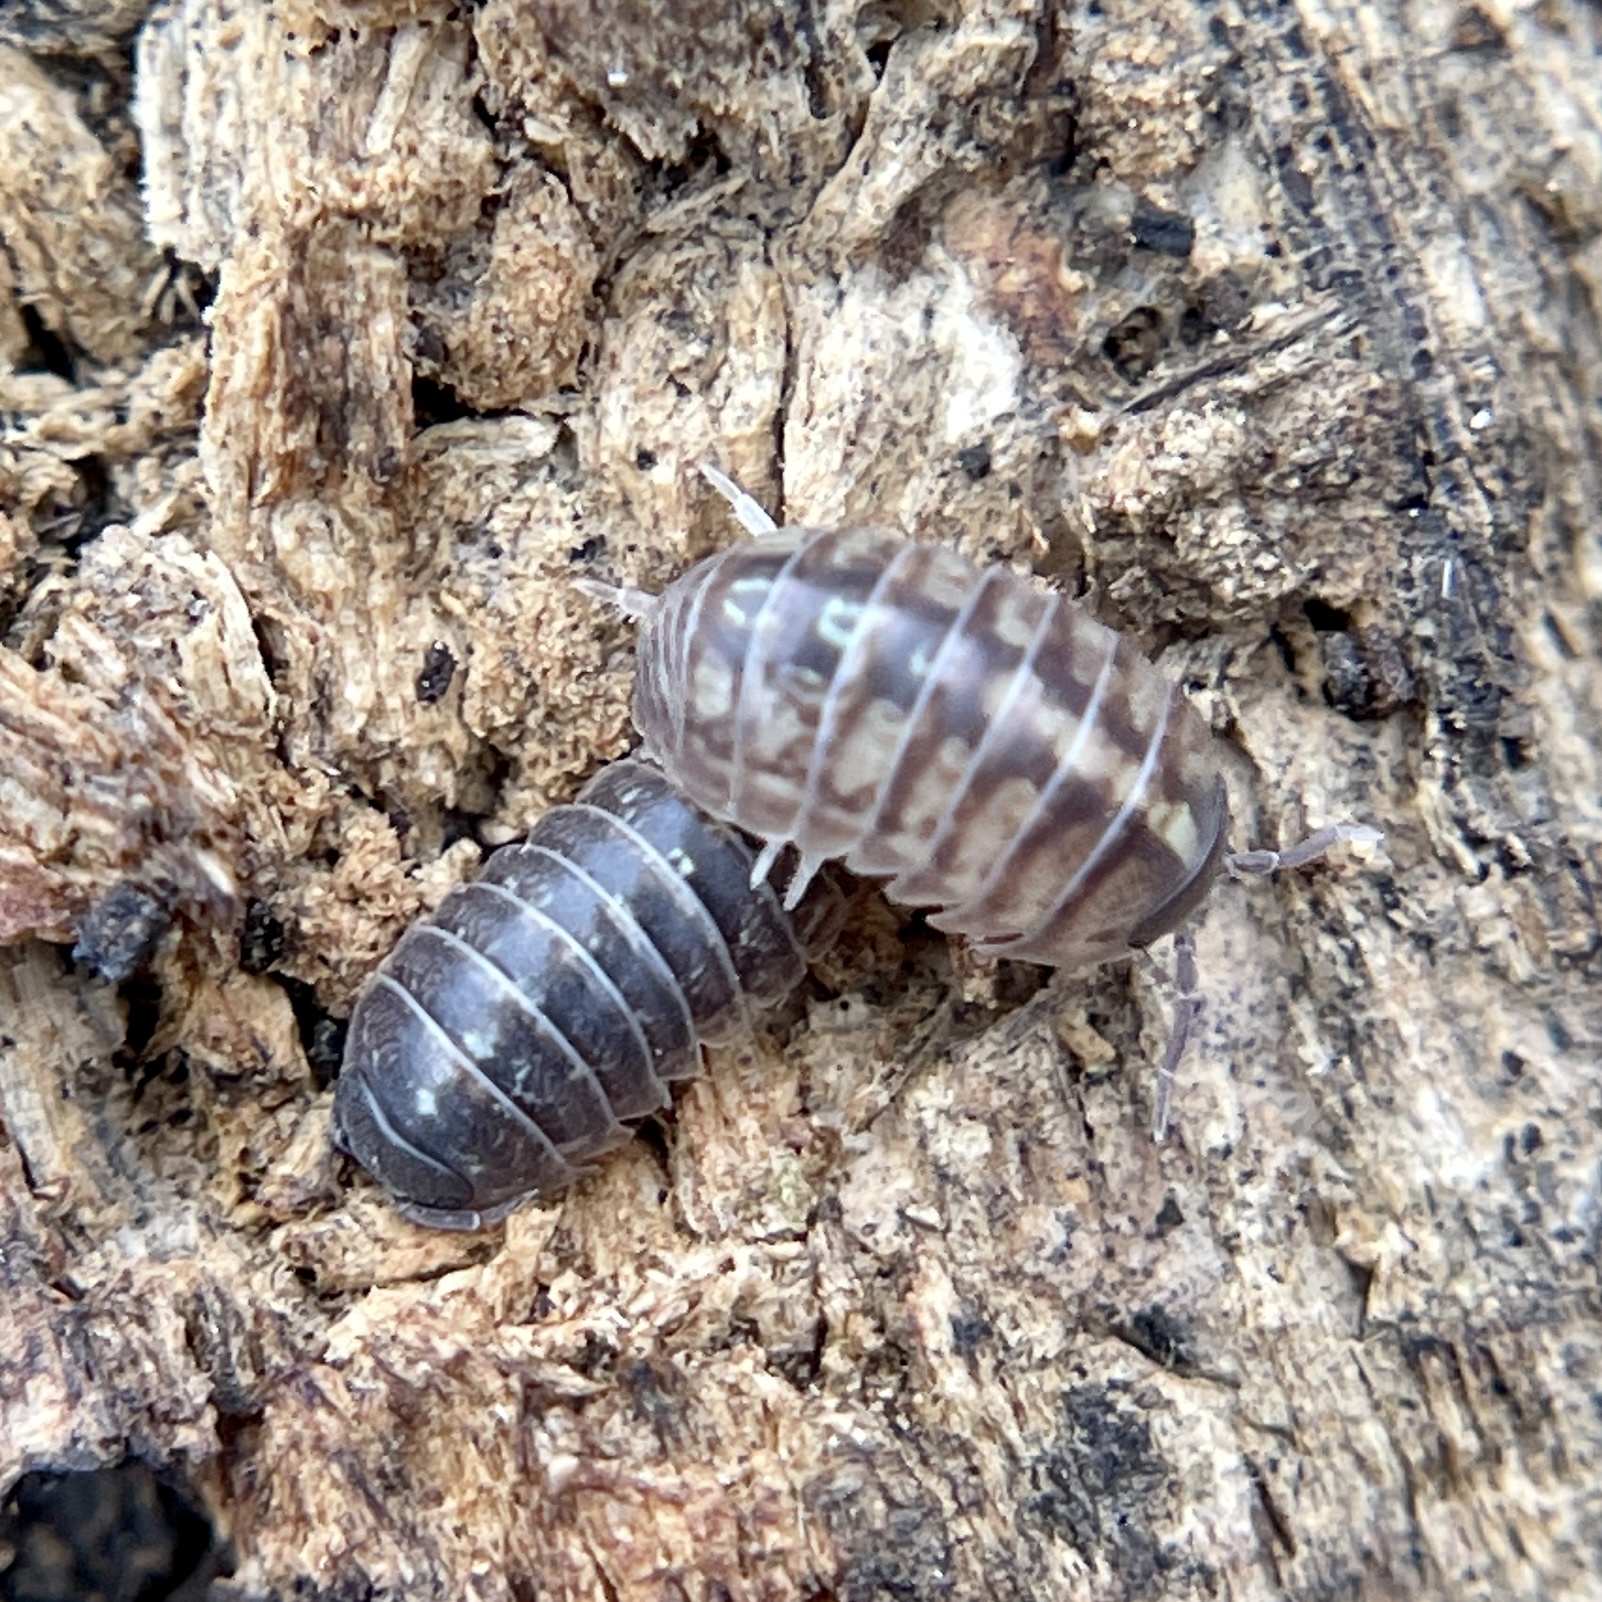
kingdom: Animalia
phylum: Arthropoda
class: Malacostraca
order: Isopoda
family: Armadillidiidae
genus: Armadillidium
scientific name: Armadillidium vulgare
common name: Common pill woodlouse
